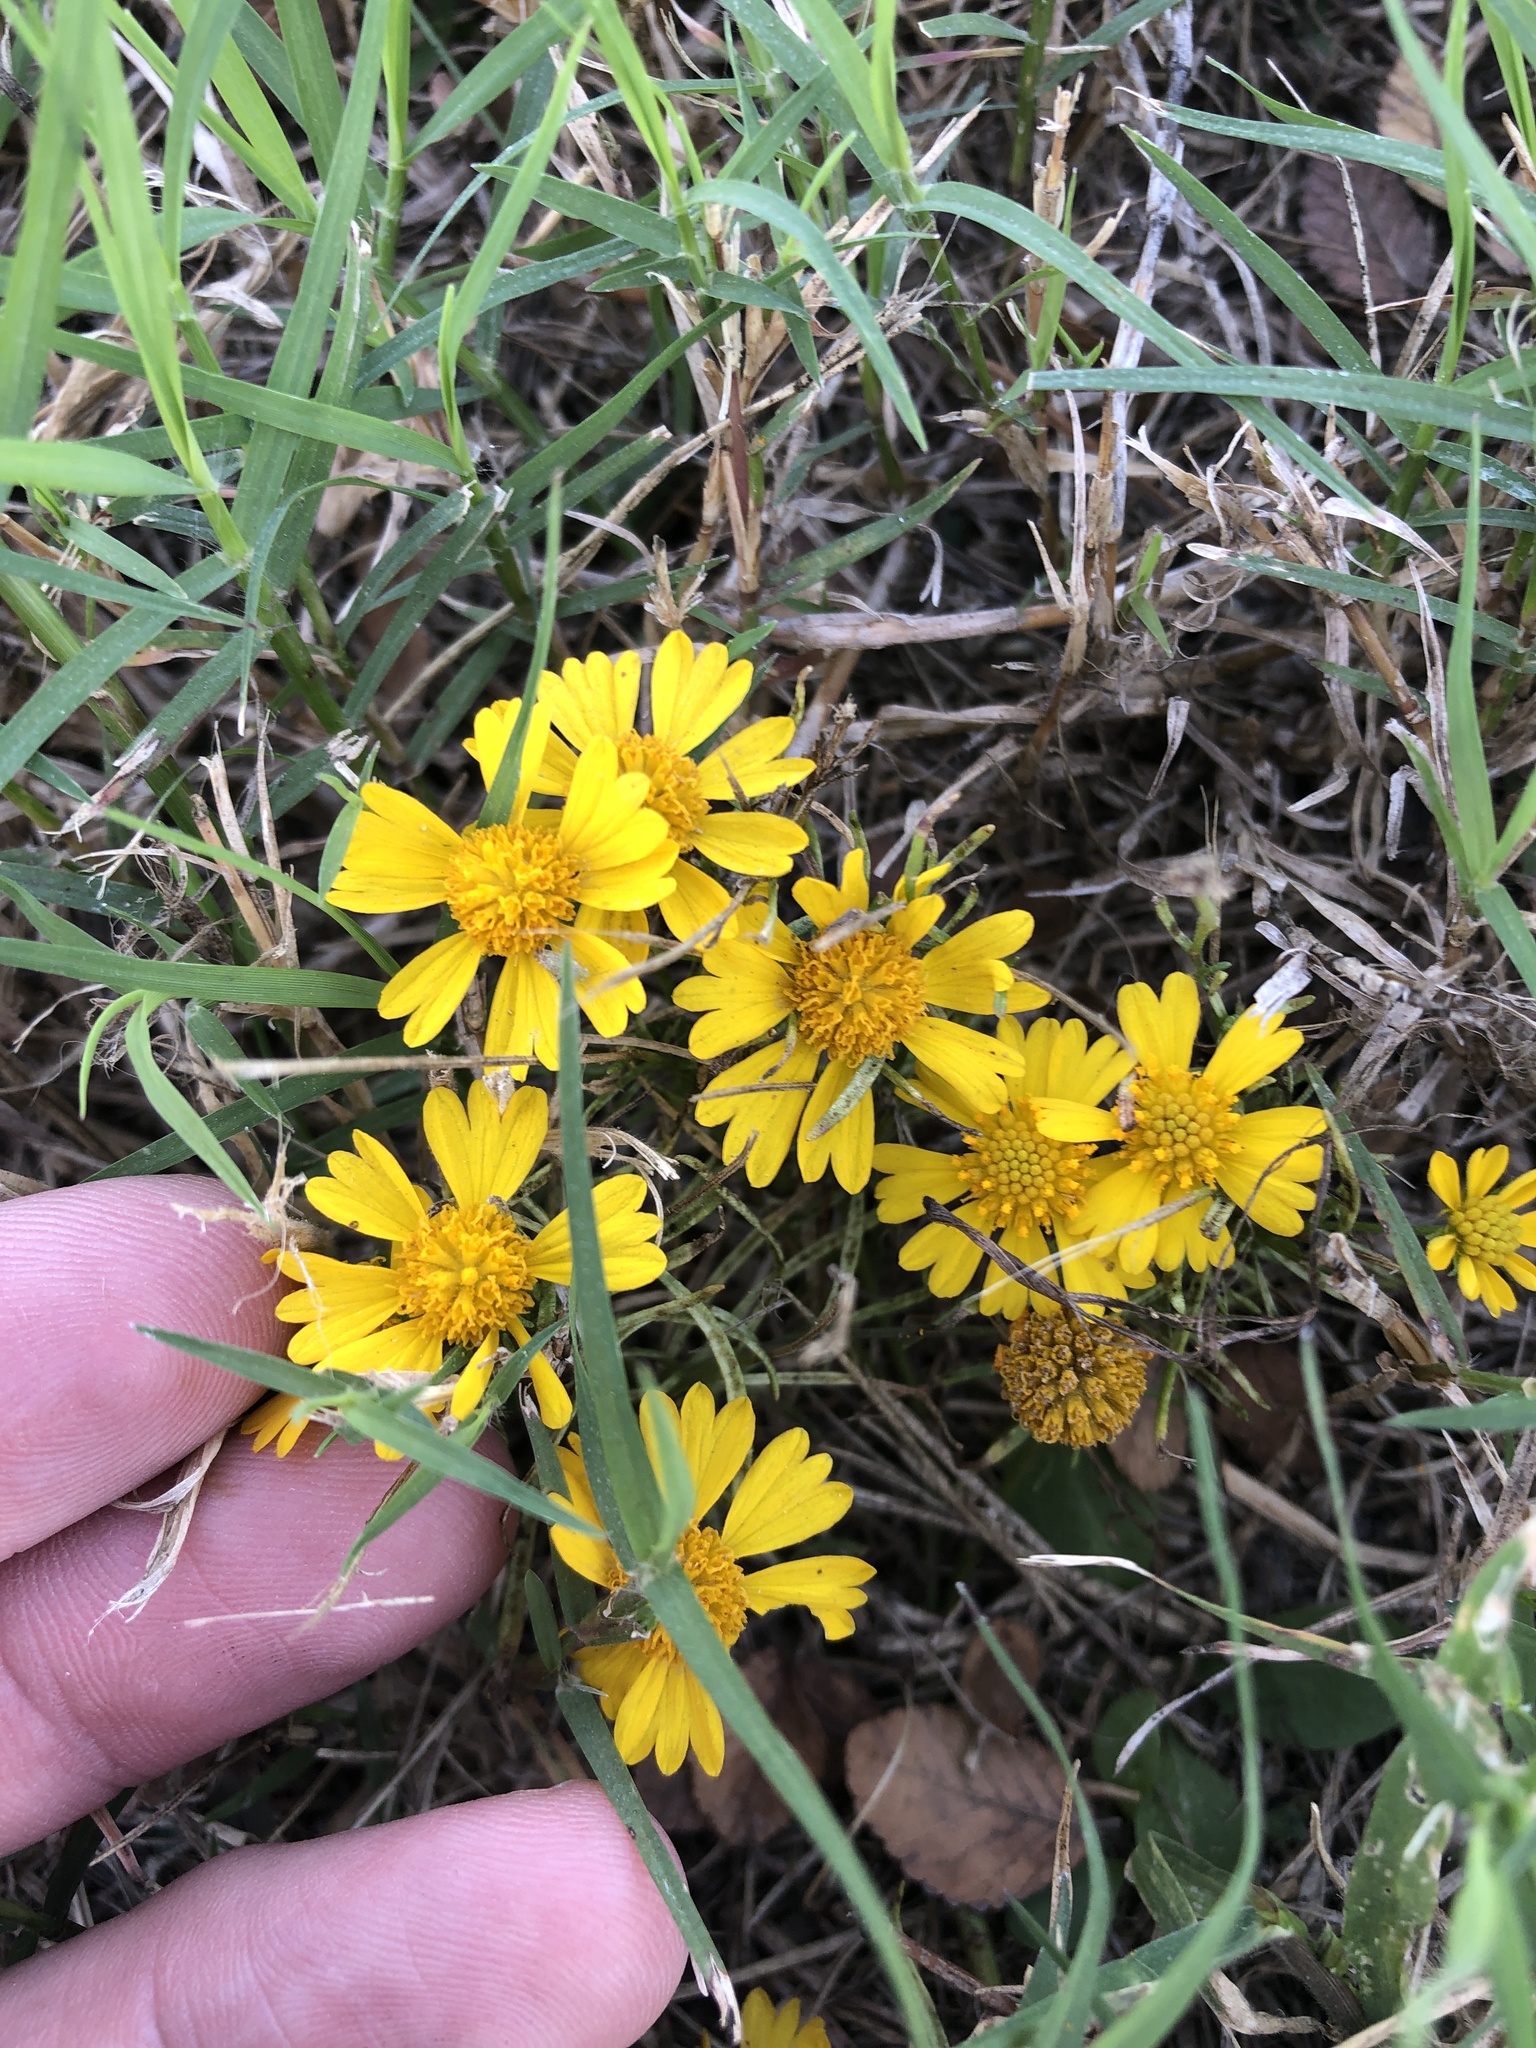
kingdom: Plantae
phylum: Tracheophyta
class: Magnoliopsida
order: Asterales
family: Asteraceae
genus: Helenium
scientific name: Helenium amarum
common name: Bitter sneezeweed
